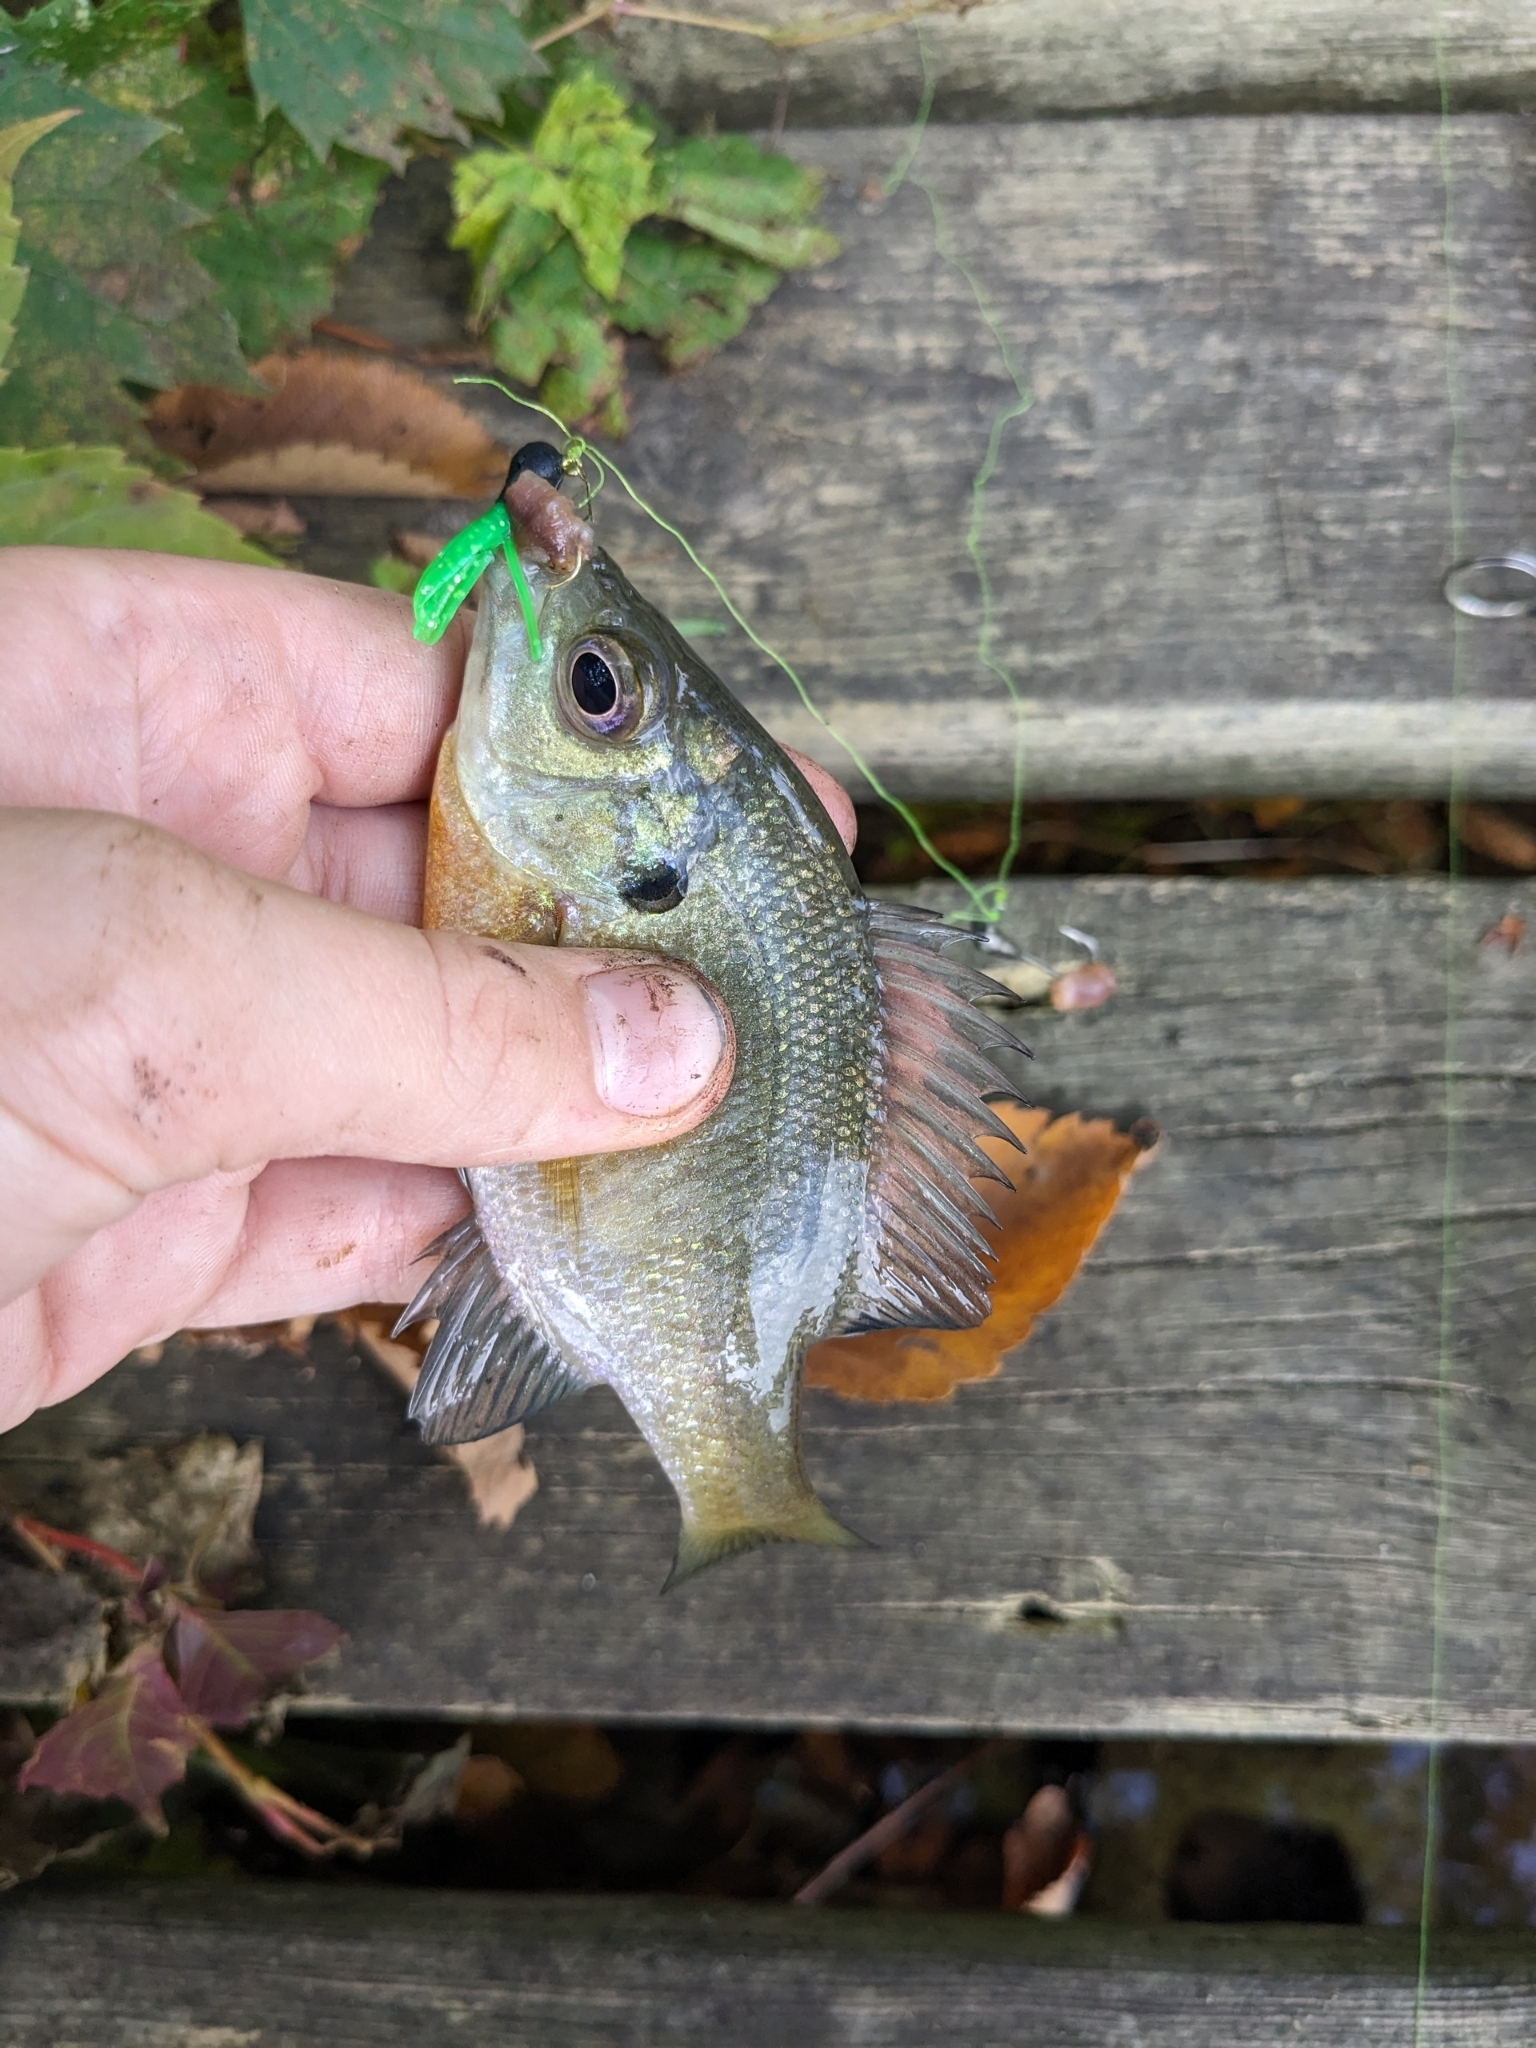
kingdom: Animalia
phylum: Chordata
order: Perciformes
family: Centrarchidae
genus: Lepomis
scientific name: Lepomis macrochirus
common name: Bluegill
